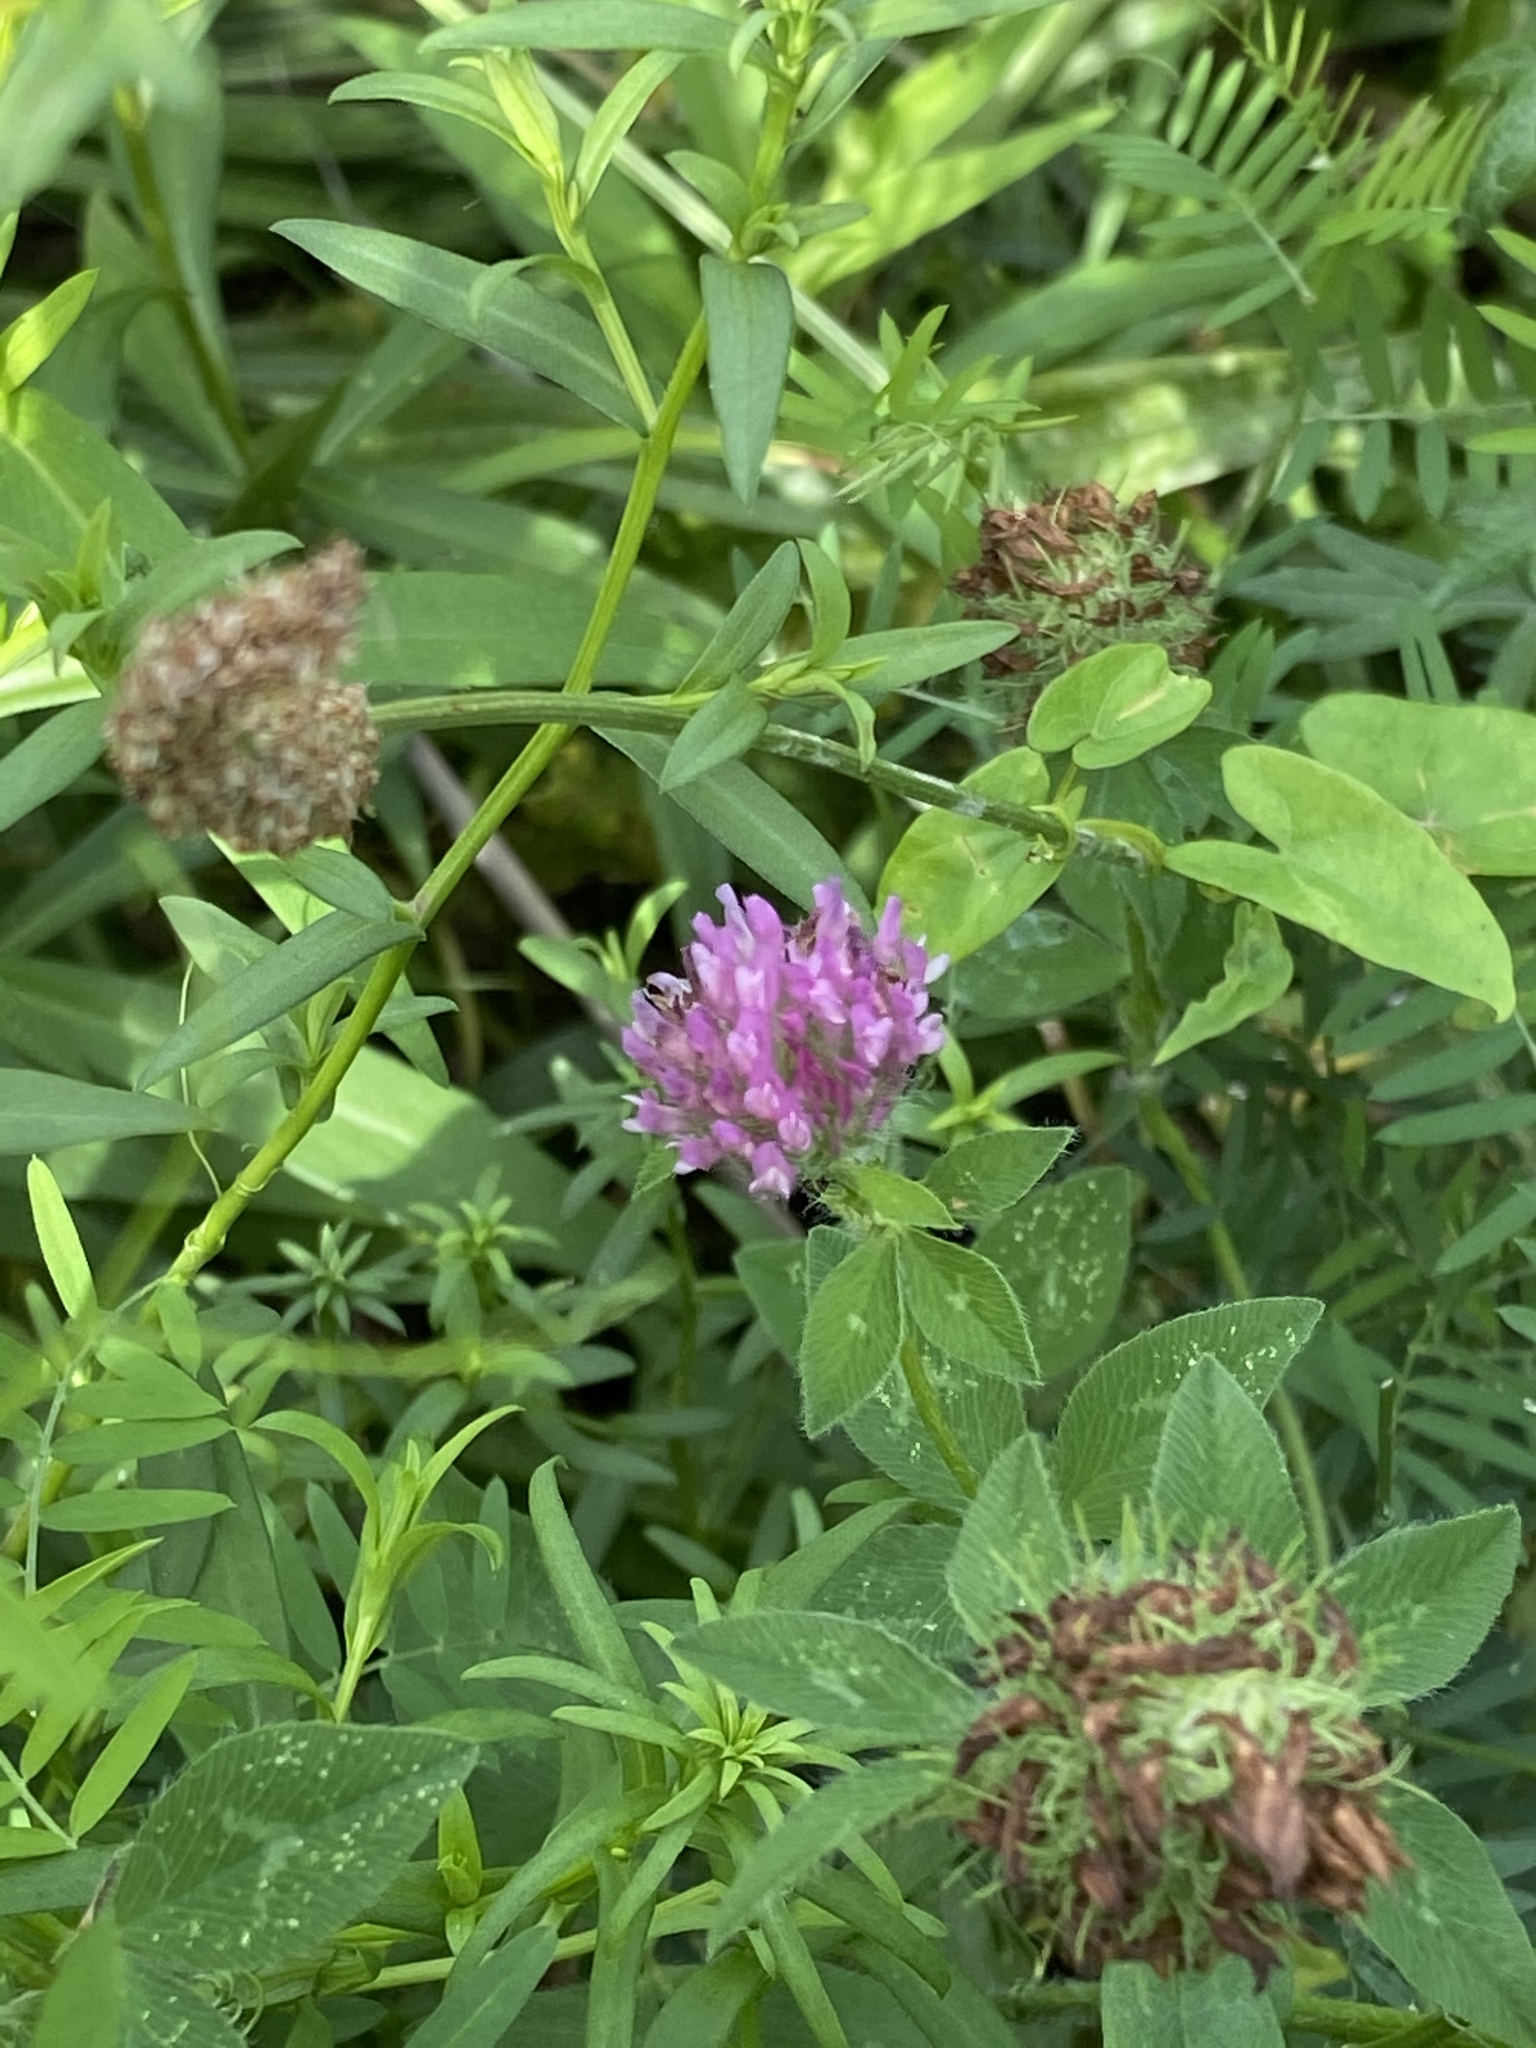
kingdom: Plantae
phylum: Tracheophyta
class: Magnoliopsida
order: Fabales
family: Fabaceae
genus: Trifolium
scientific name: Trifolium pratense
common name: Red clover
